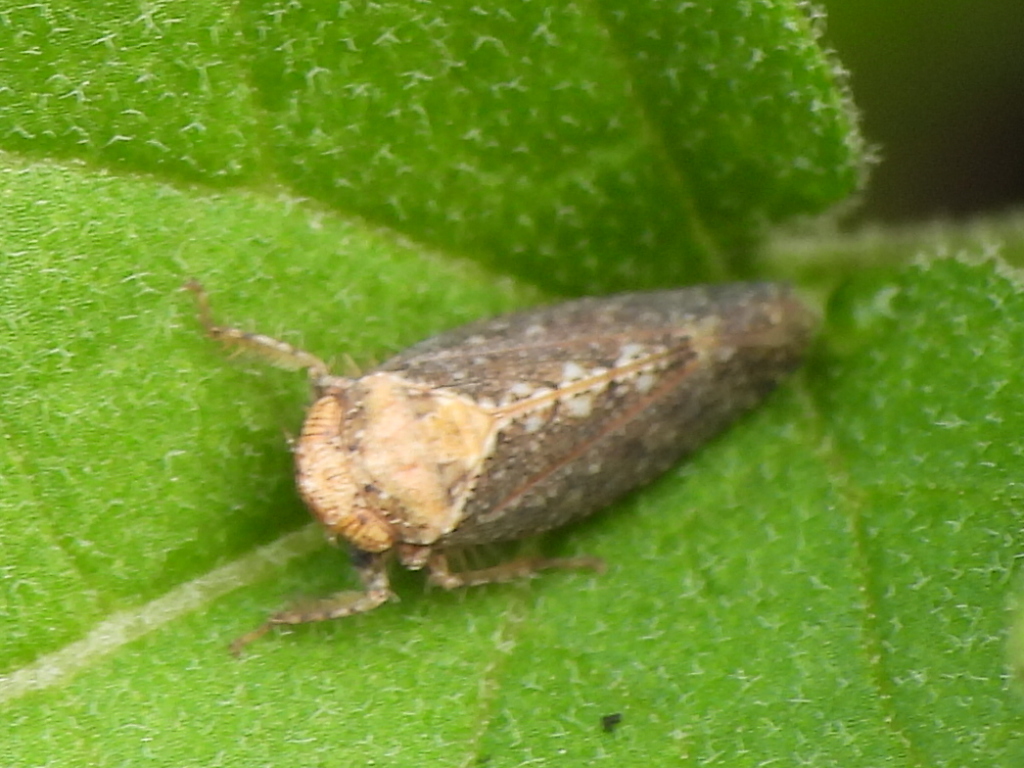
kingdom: Animalia
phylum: Arthropoda
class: Insecta
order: Hemiptera
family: Cicadellidae
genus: Excultanus
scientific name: Excultanus excultus
